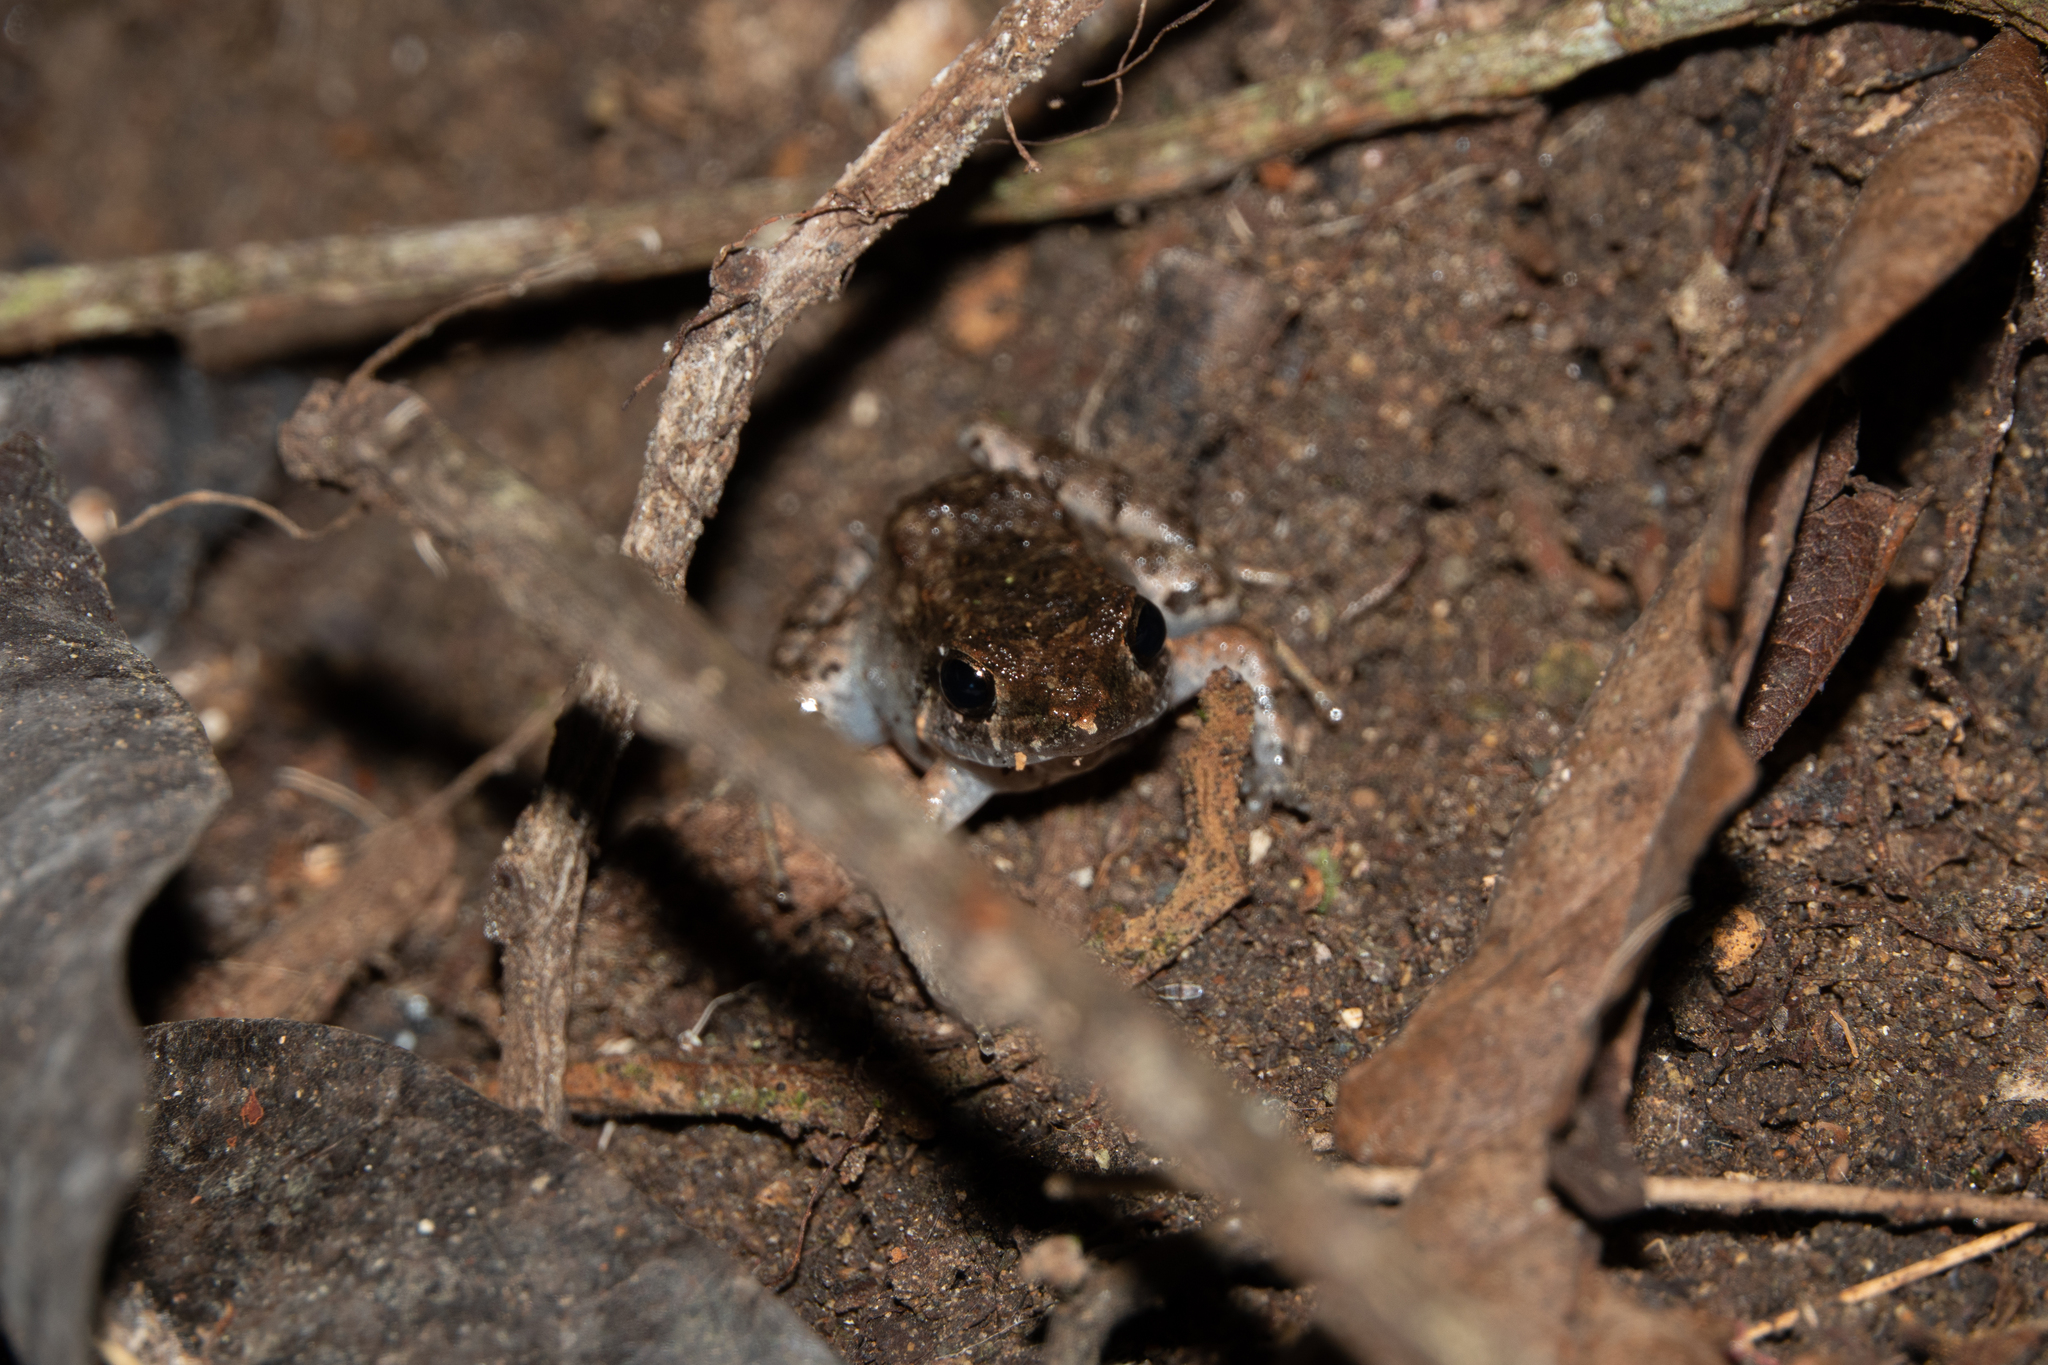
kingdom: Animalia
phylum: Chordata
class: Amphibia
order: Anura
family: Craugastoridae
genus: Barycholos
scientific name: Barycholos pulcher
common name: Chimbo frog
